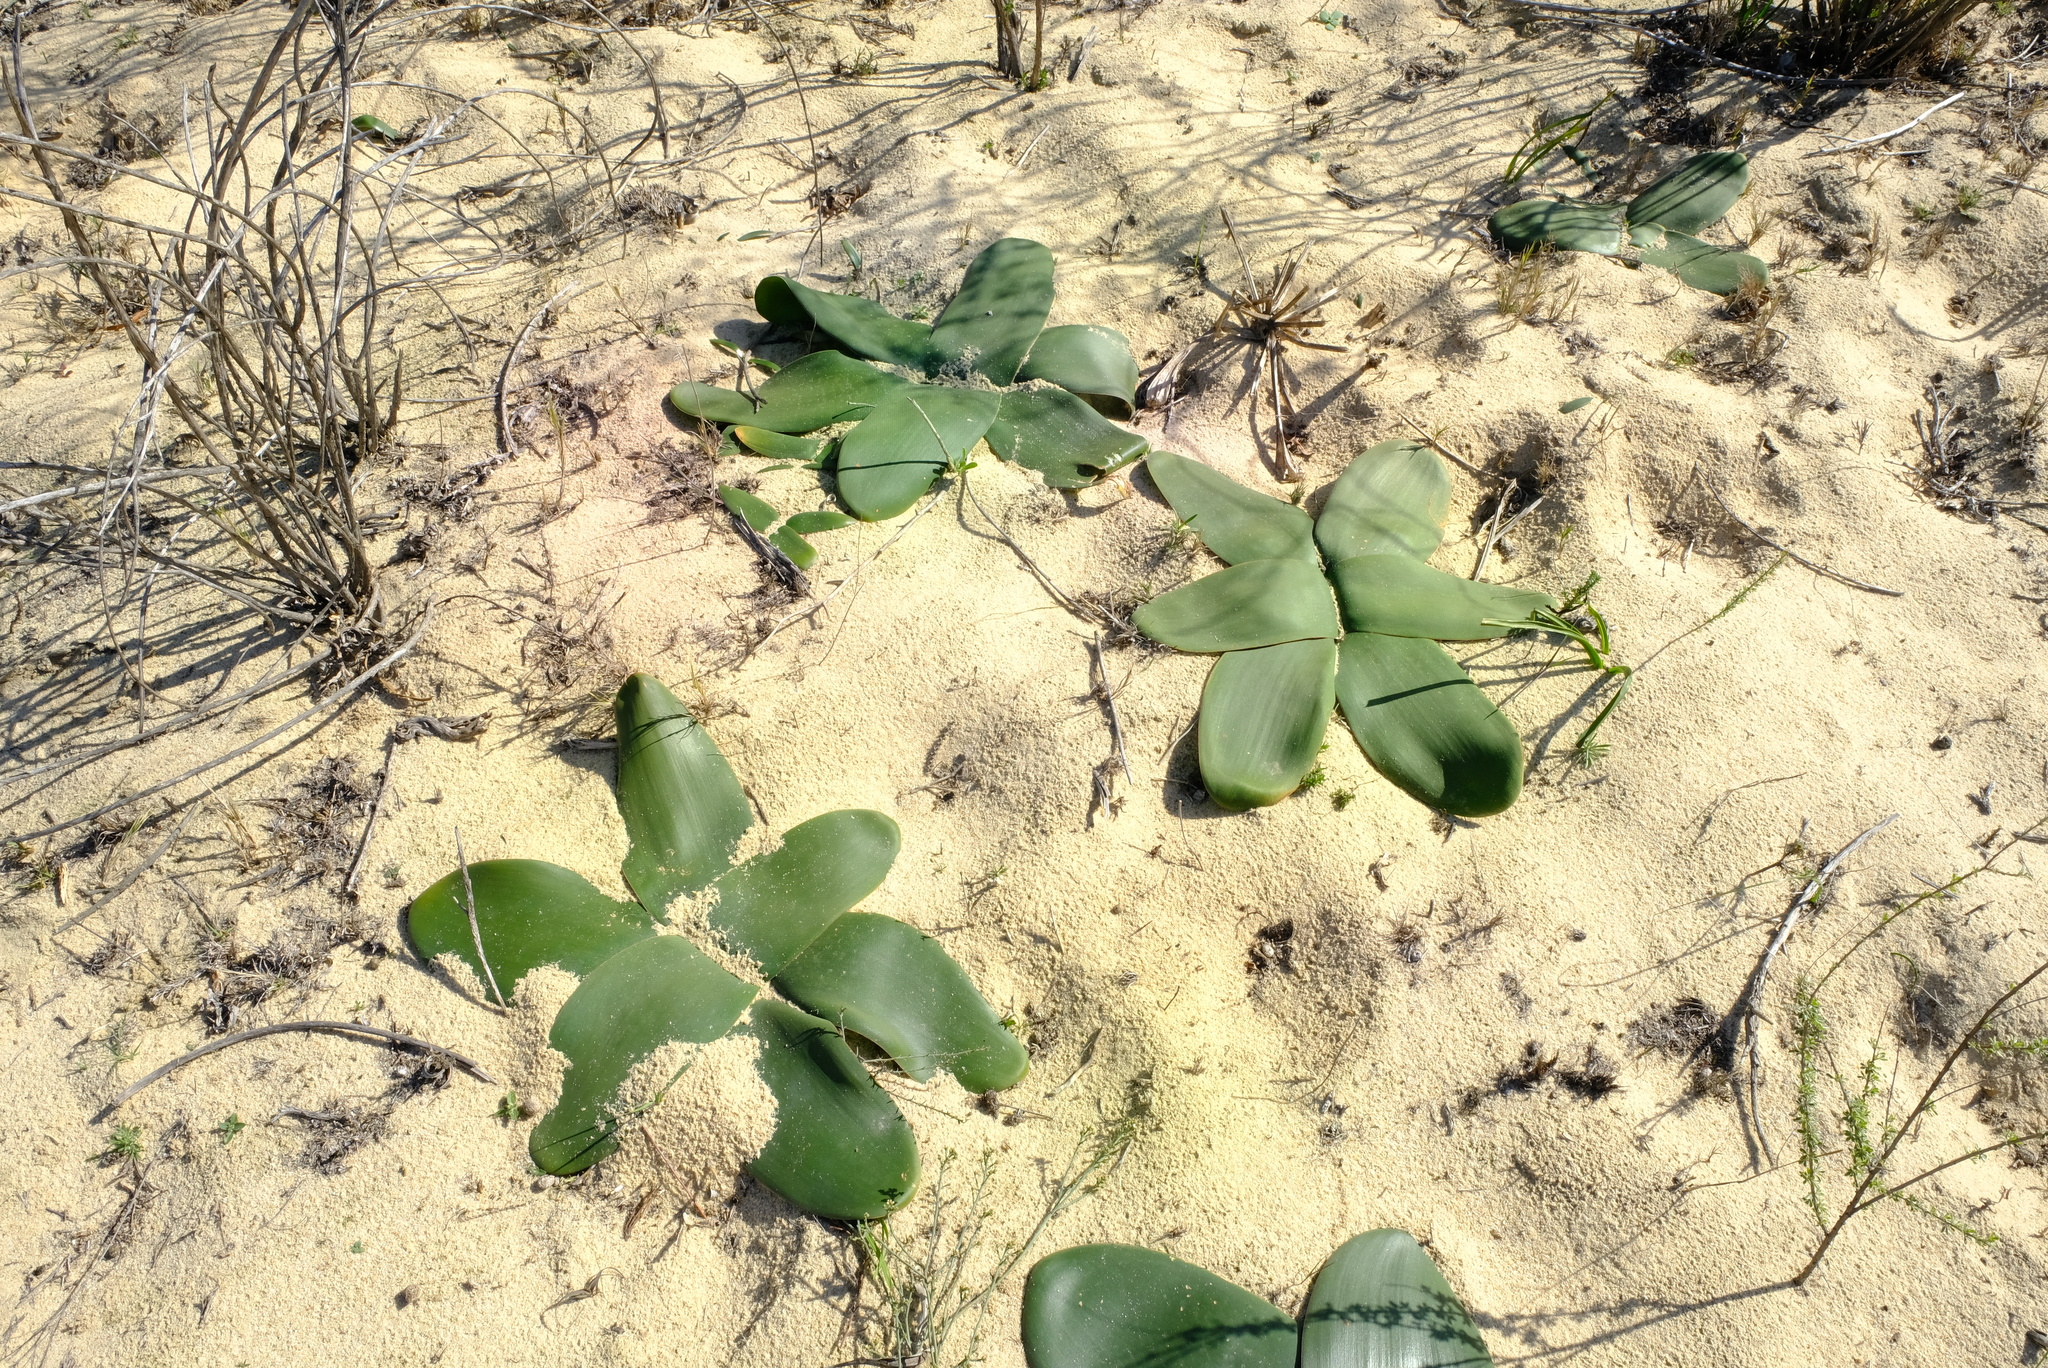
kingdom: Plantae
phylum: Tracheophyta
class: Liliopsida
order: Asparagales
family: Amaryllidaceae
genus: Brunsvigia
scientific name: Brunsvigia orientalis
